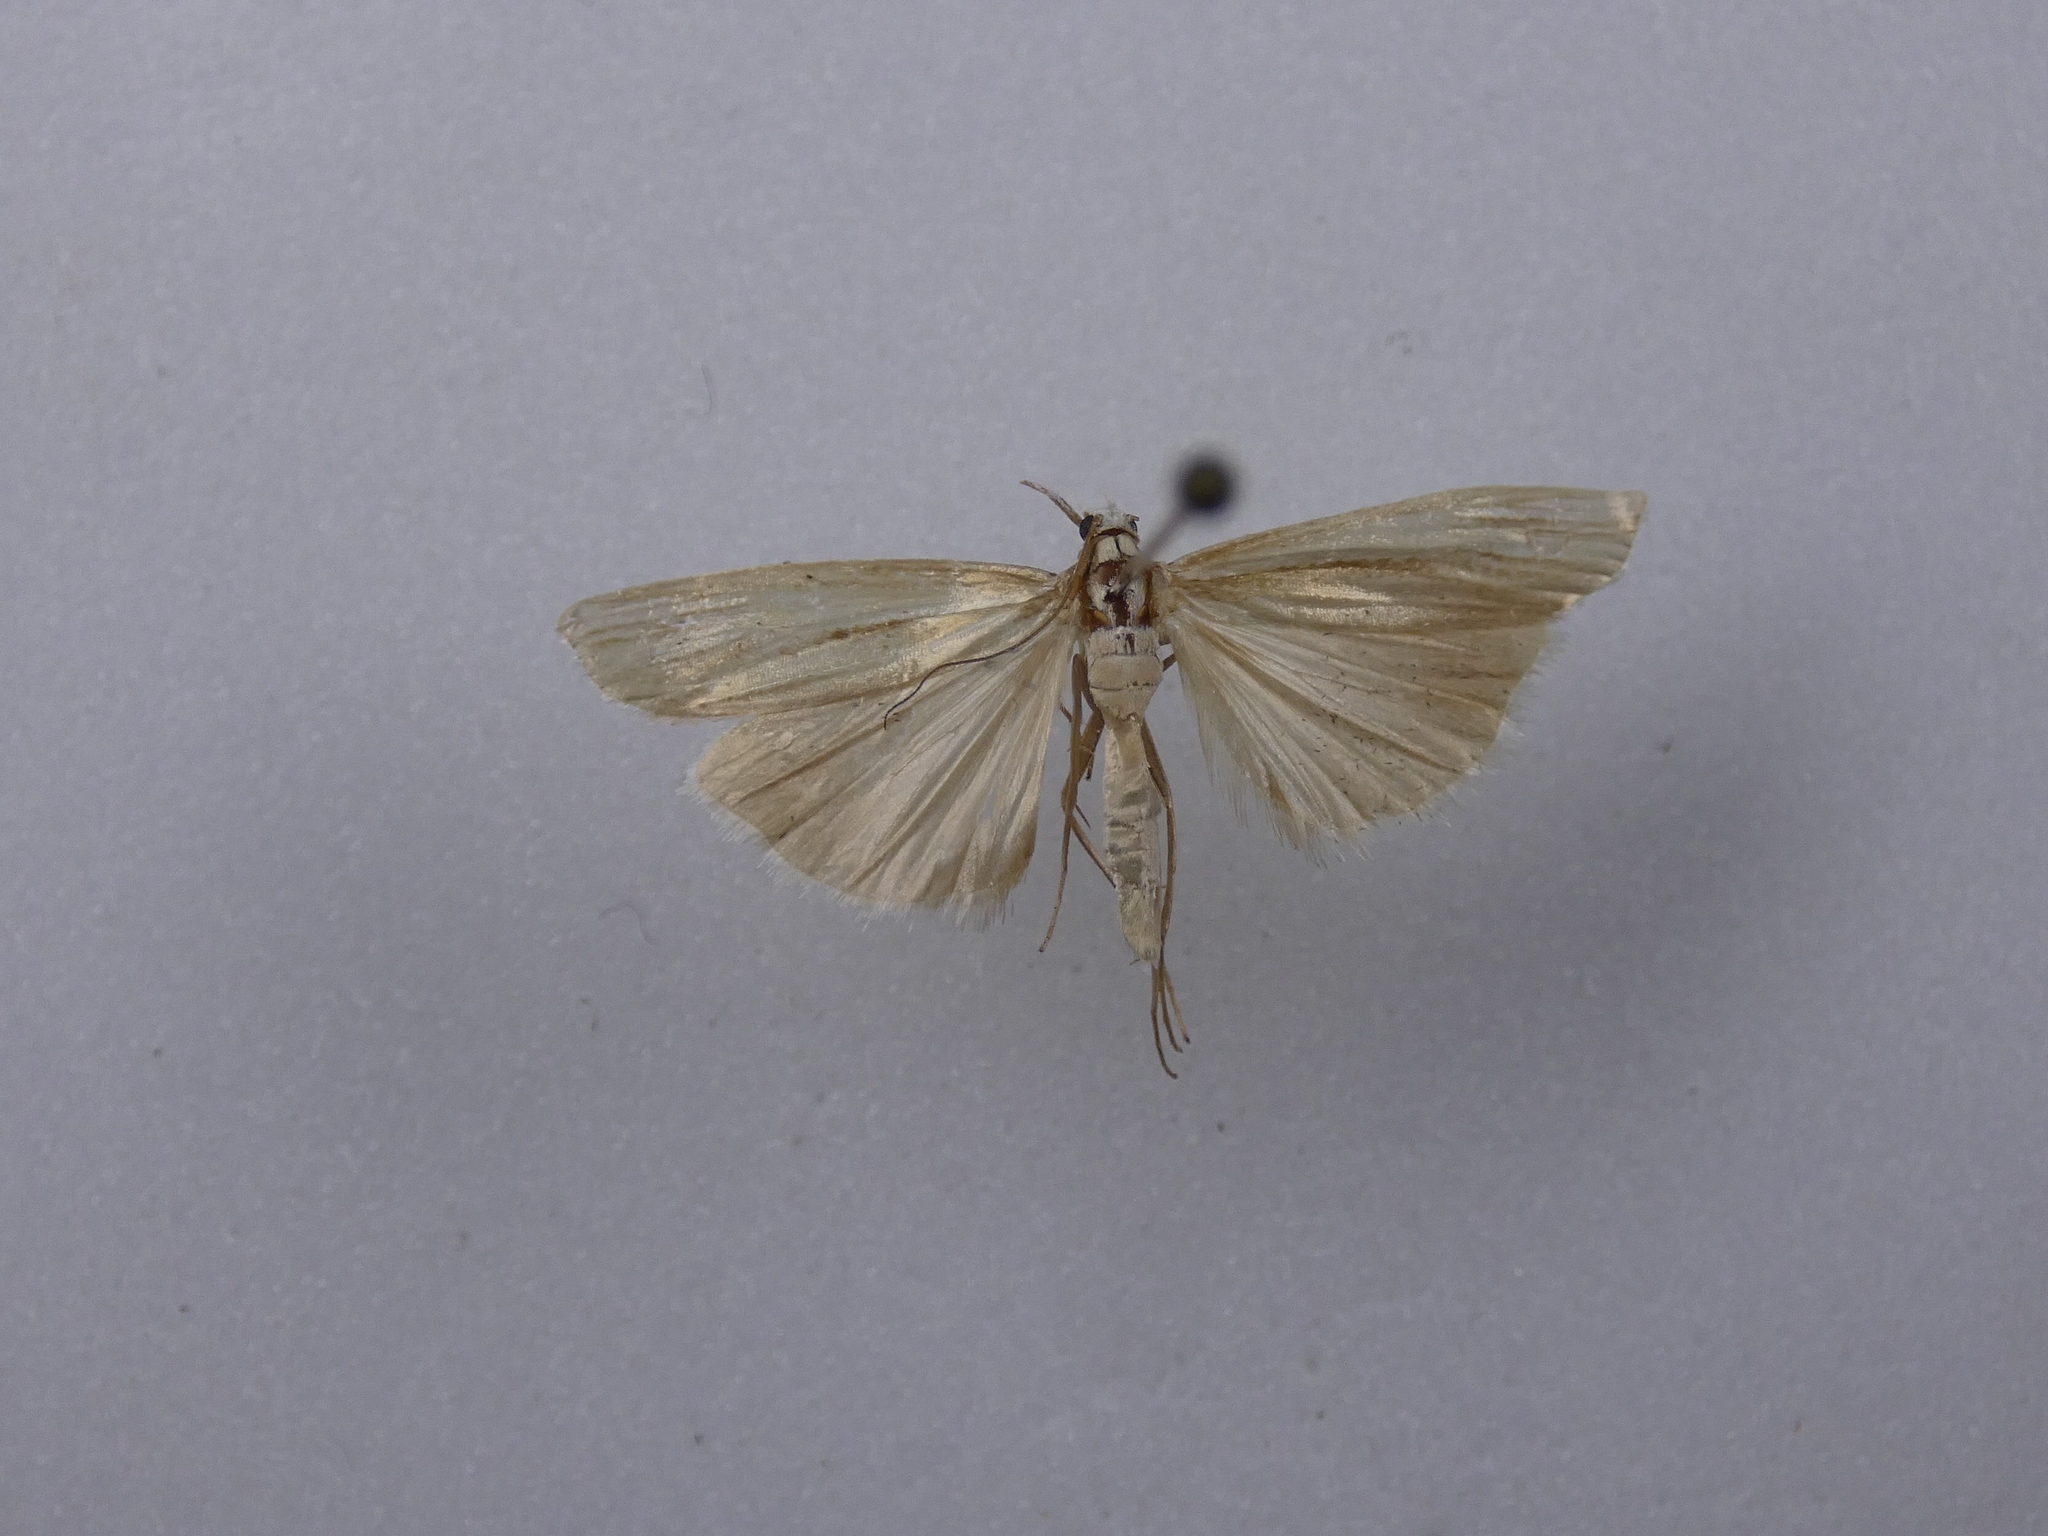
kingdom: Animalia
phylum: Arthropoda
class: Insecta
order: Lepidoptera
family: Crambidae
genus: Orocrambus
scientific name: Orocrambus ramosellus
